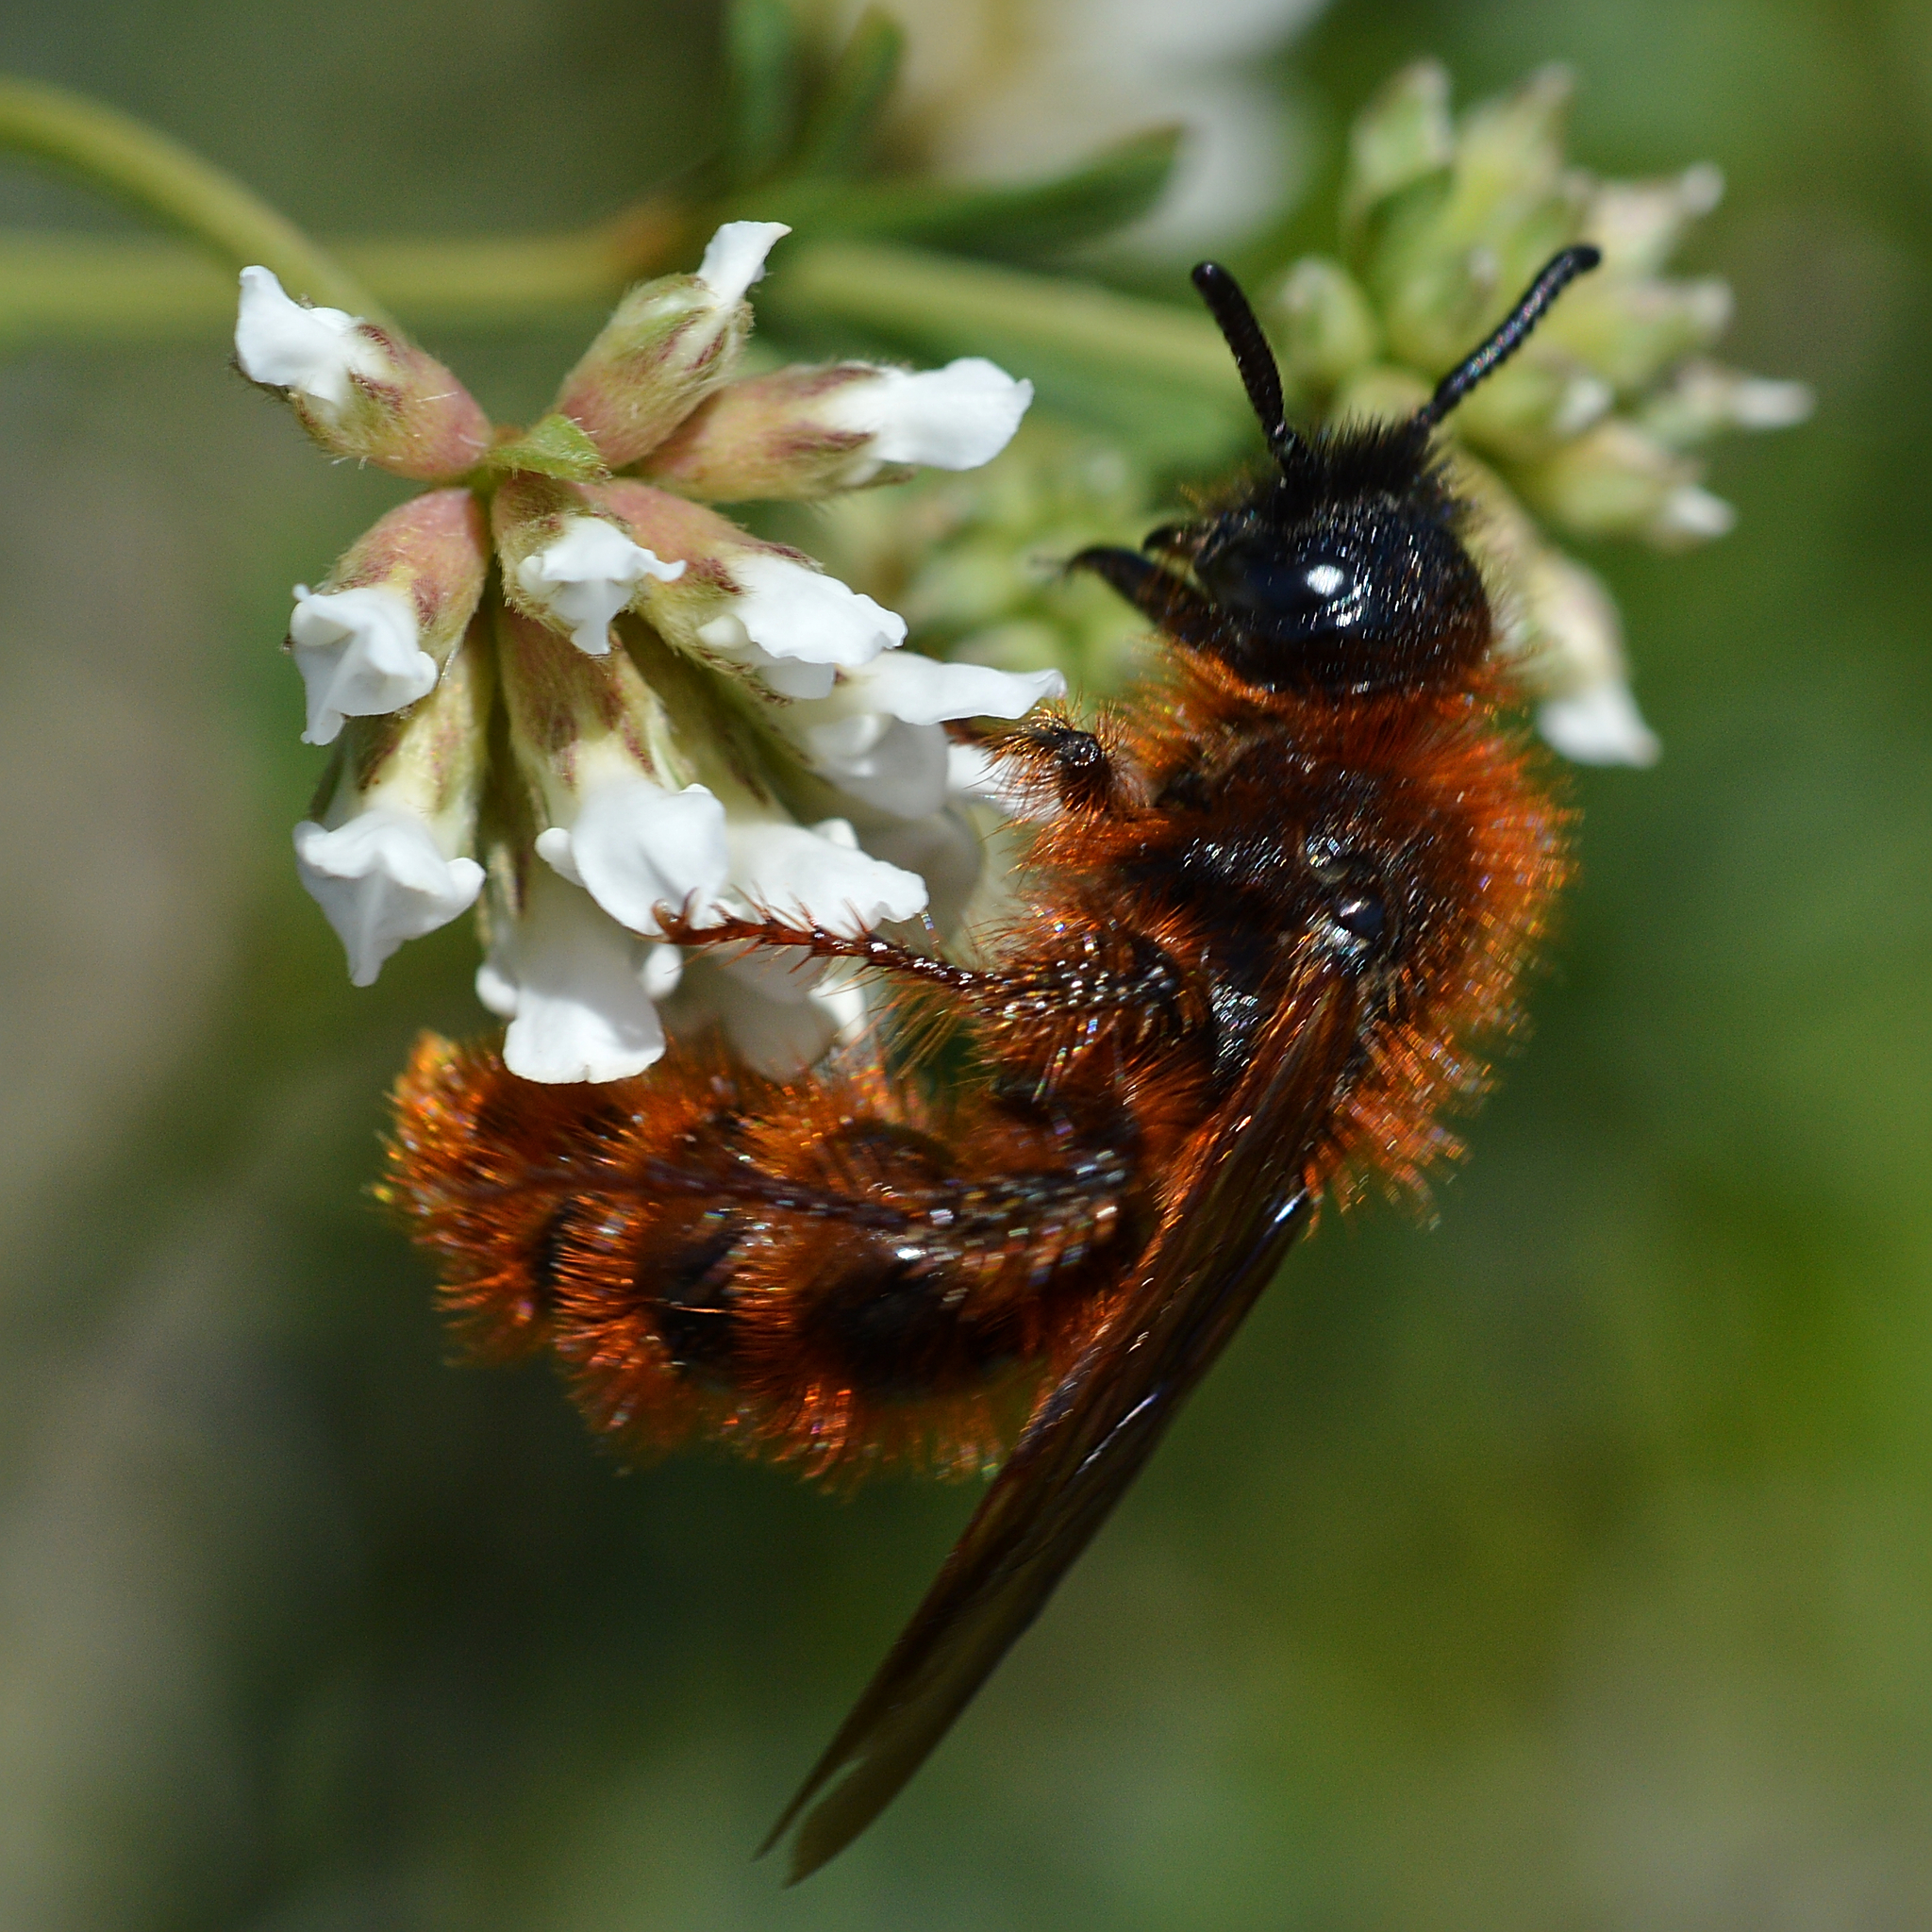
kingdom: Animalia
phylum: Arthropoda
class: Insecta
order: Hymenoptera
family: Scoliidae
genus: Dasyscolia
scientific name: Dasyscolia ciliata
